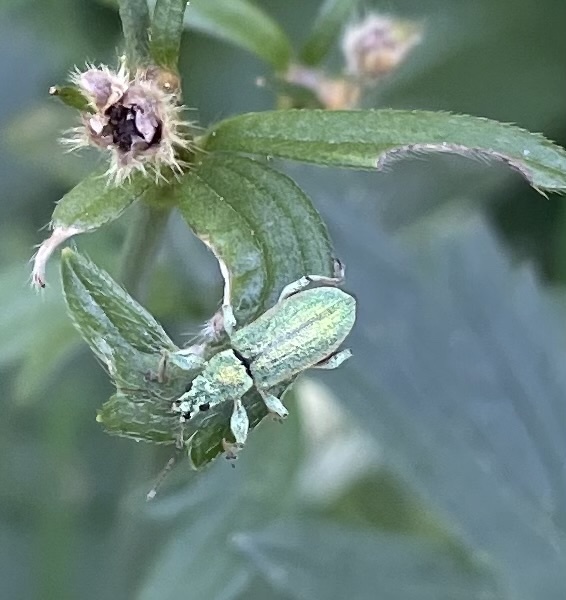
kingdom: Animalia
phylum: Arthropoda
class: Insecta
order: Coleoptera
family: Curculionidae
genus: Phyllobius
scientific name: Phyllobius arborator
